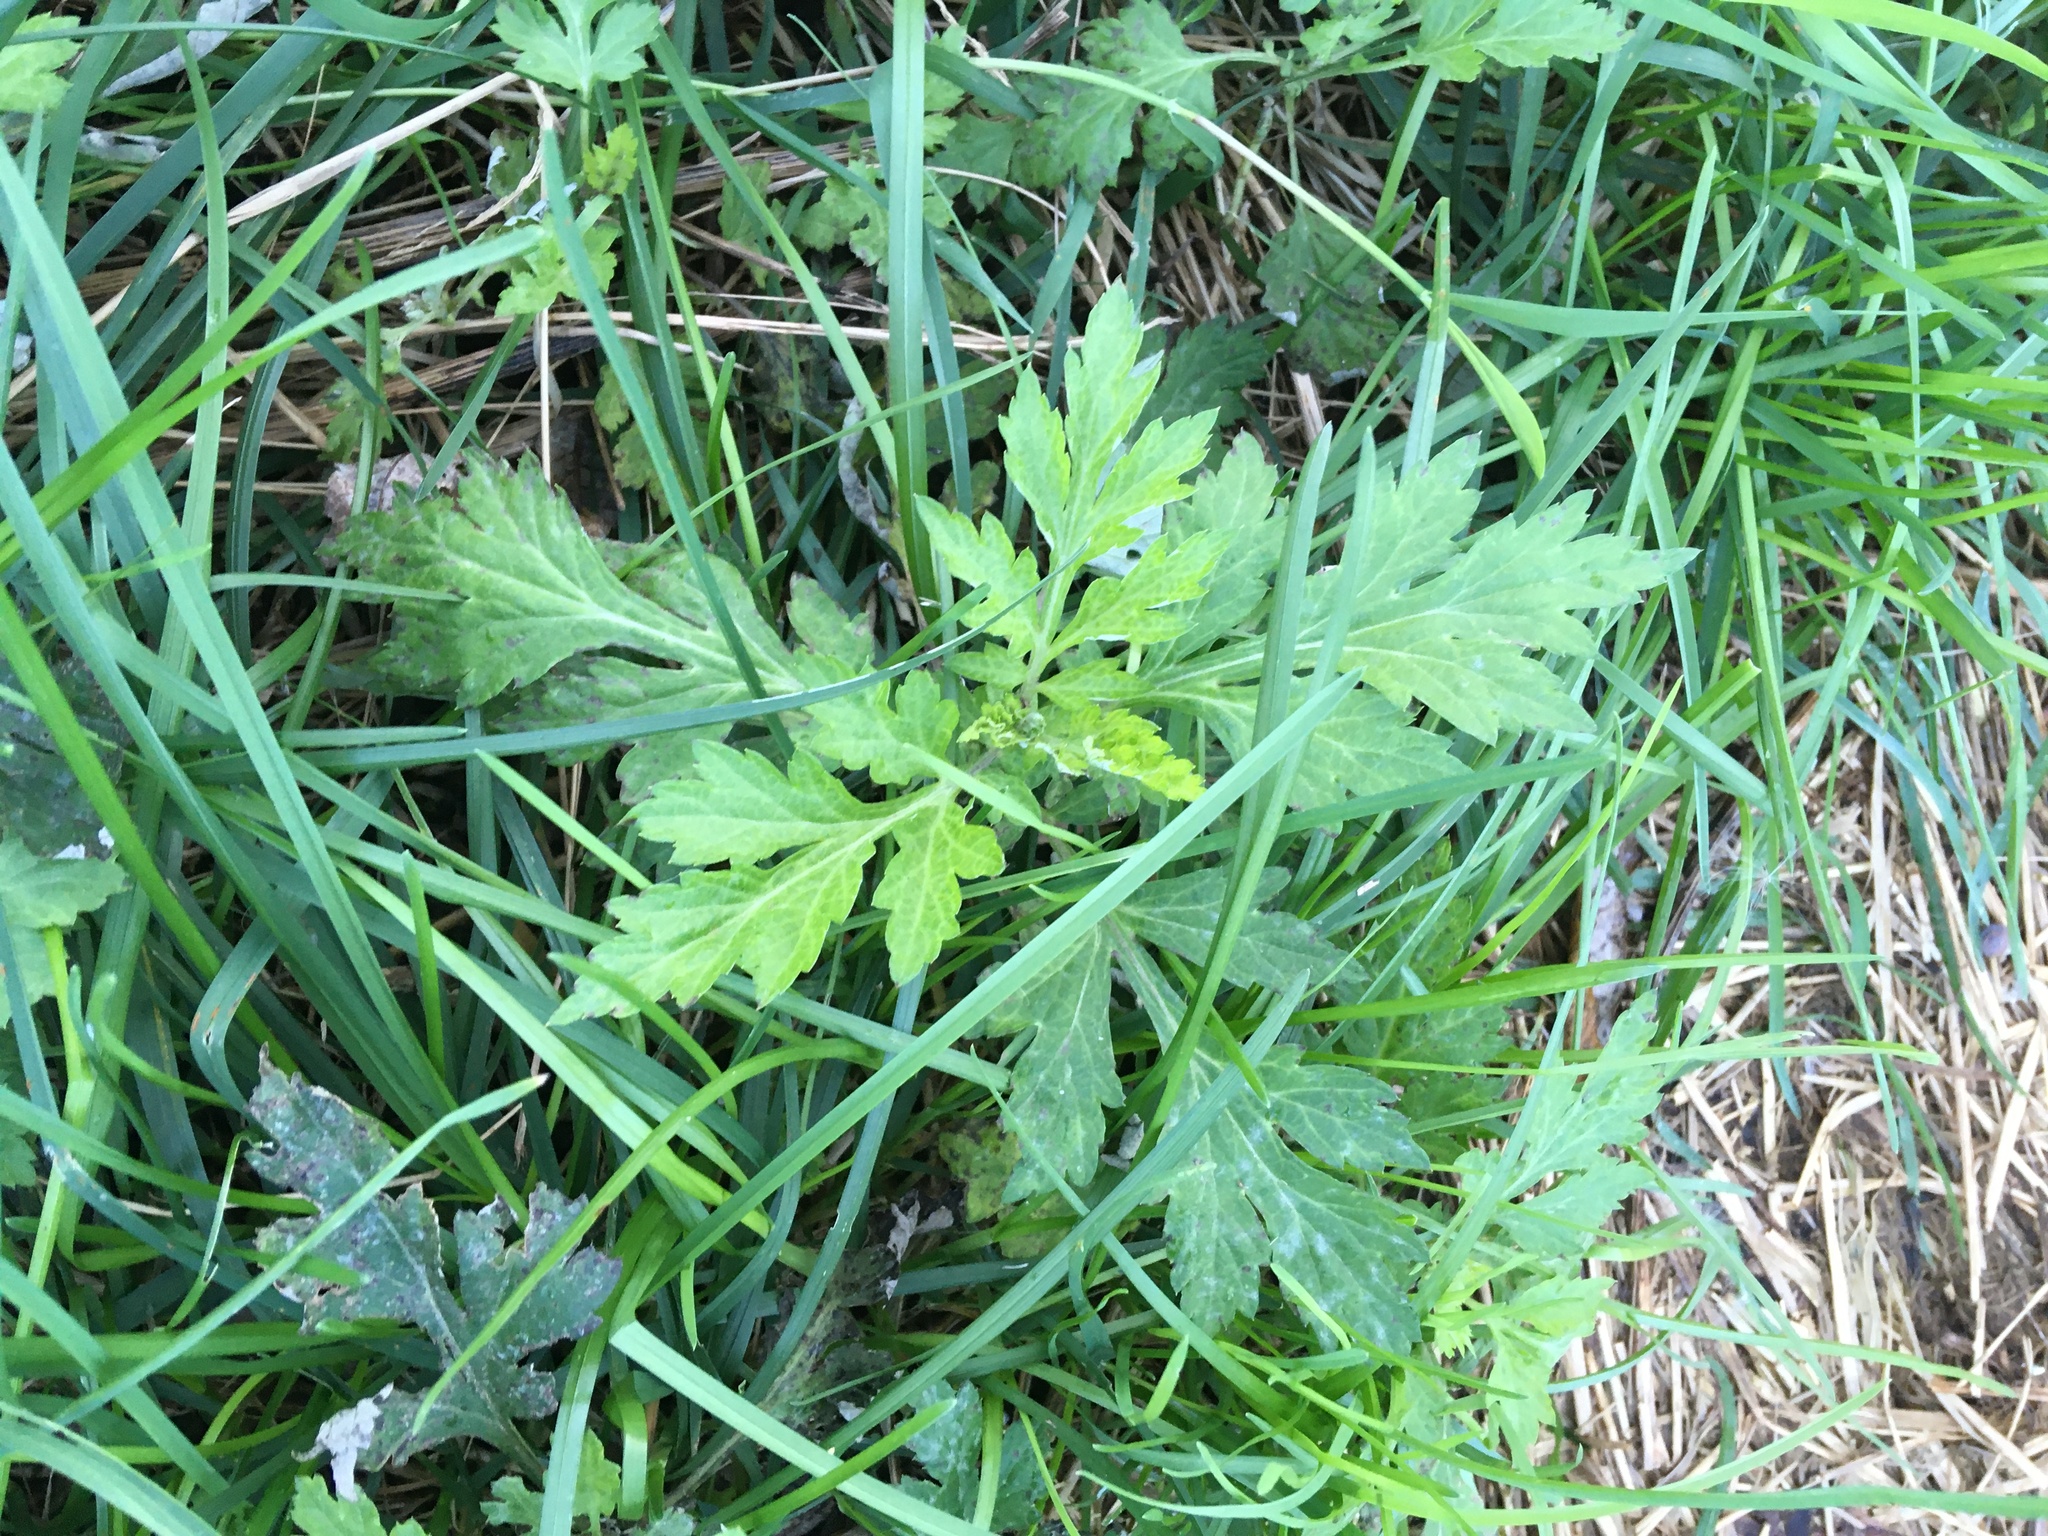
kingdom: Plantae
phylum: Tracheophyta
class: Magnoliopsida
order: Asterales
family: Asteraceae
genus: Artemisia
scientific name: Artemisia vulgaris
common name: Mugwort
